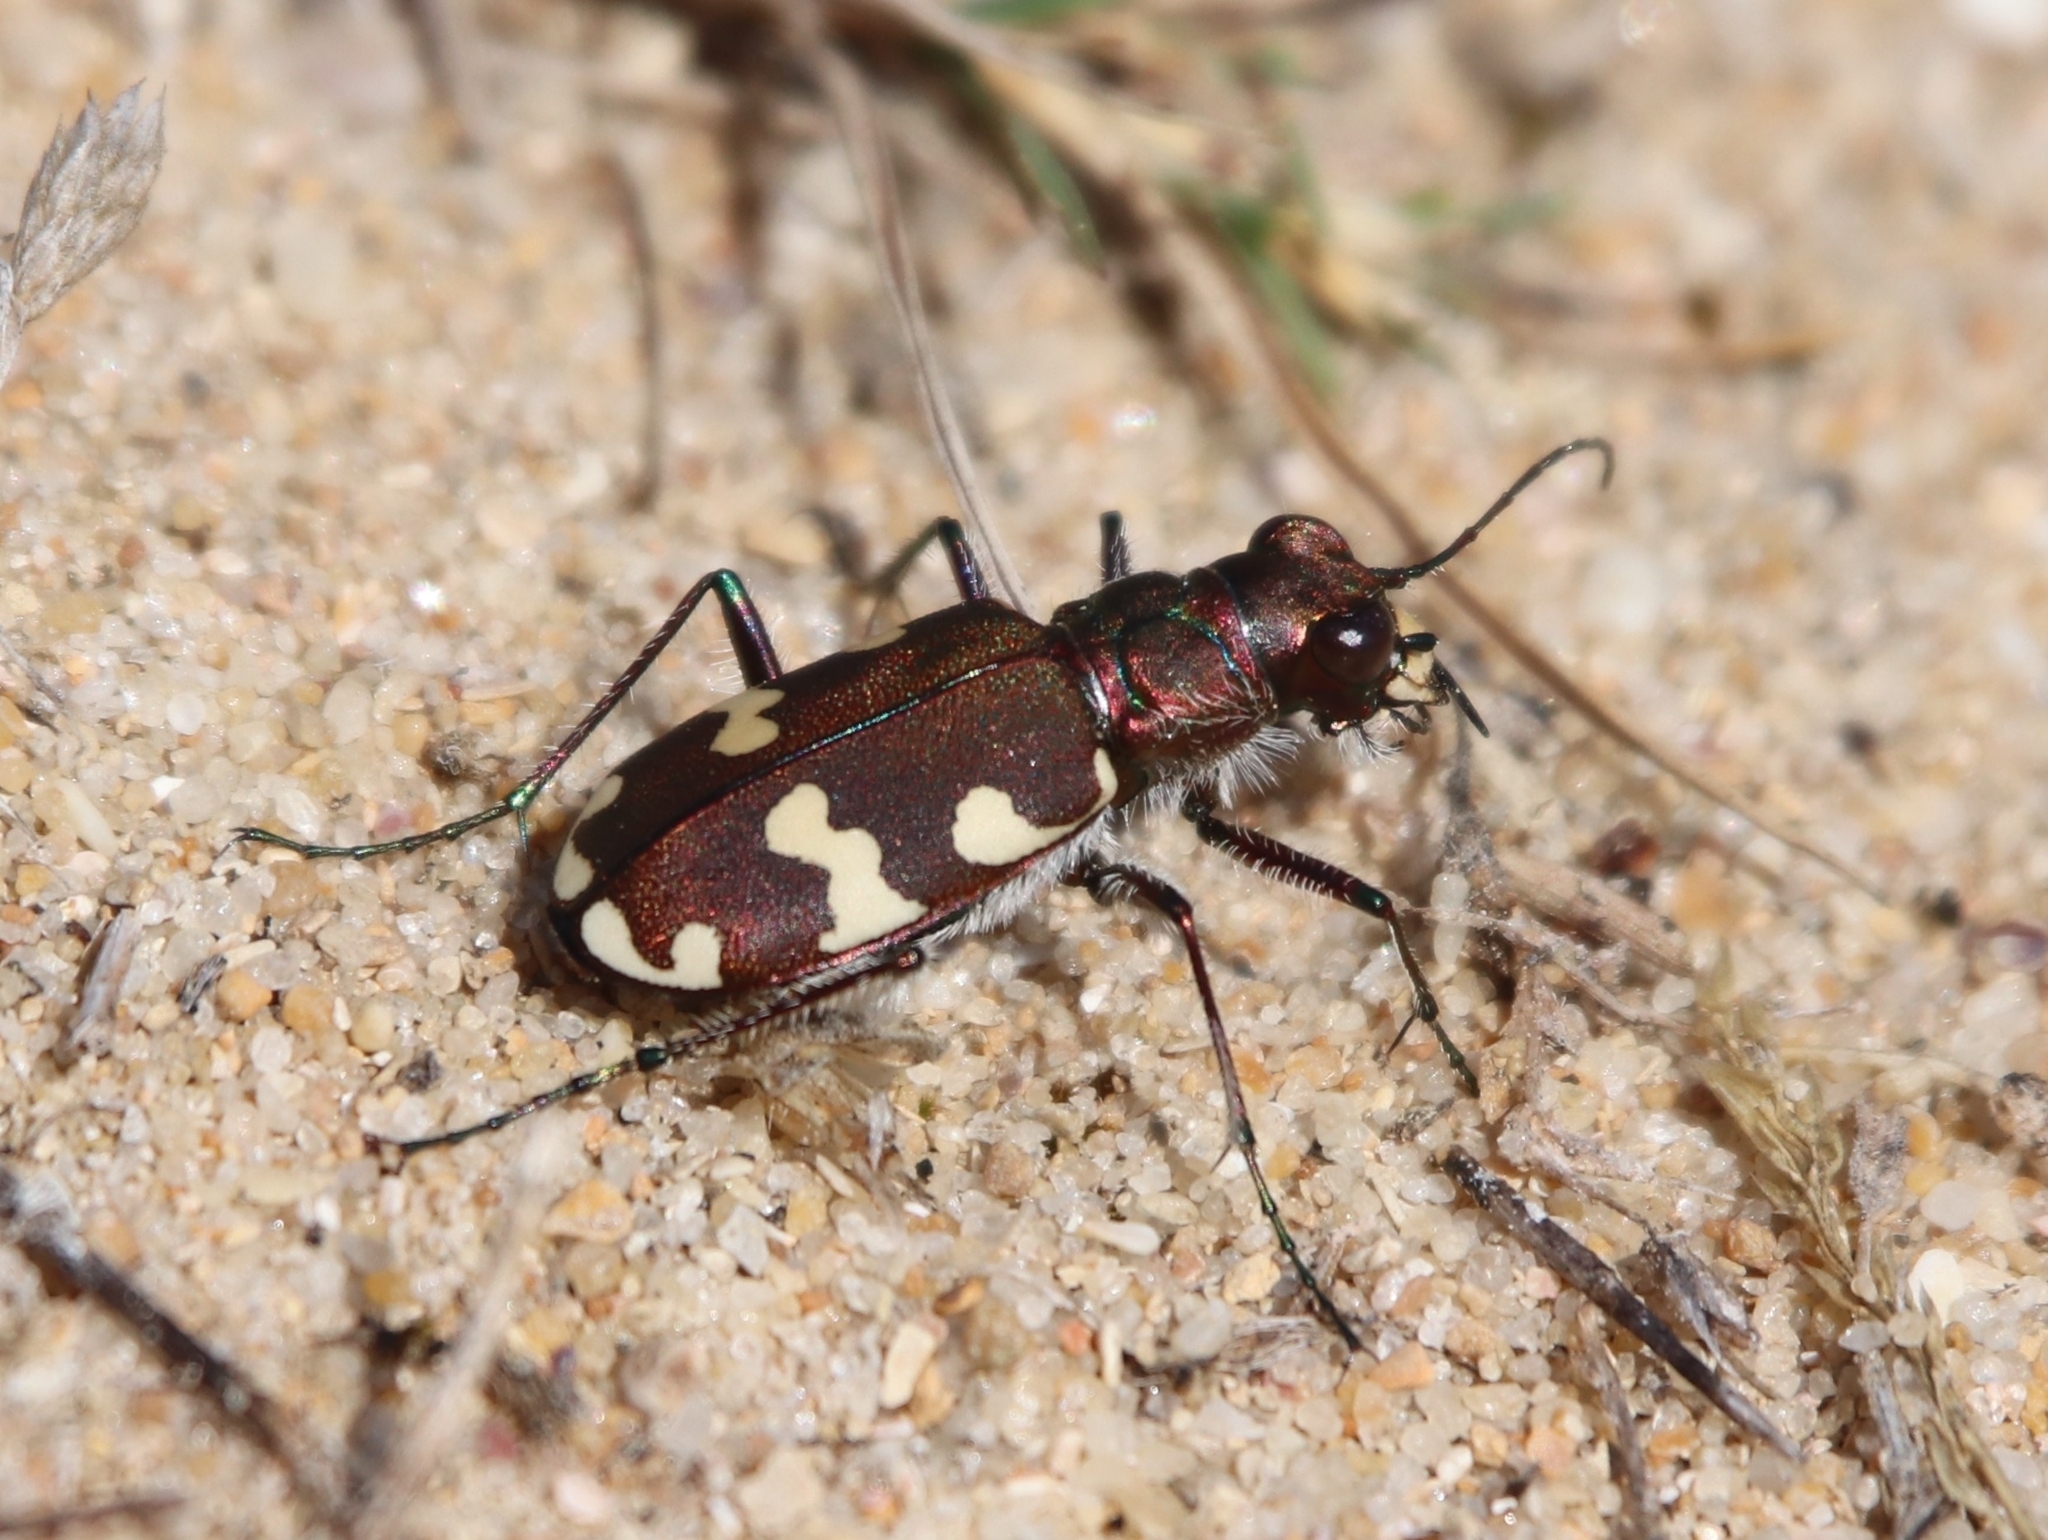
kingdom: Animalia
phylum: Arthropoda
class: Insecta
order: Coleoptera
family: Carabidae
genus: Cicindela
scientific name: Cicindela hybrida
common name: Northern dune tiger beetle
